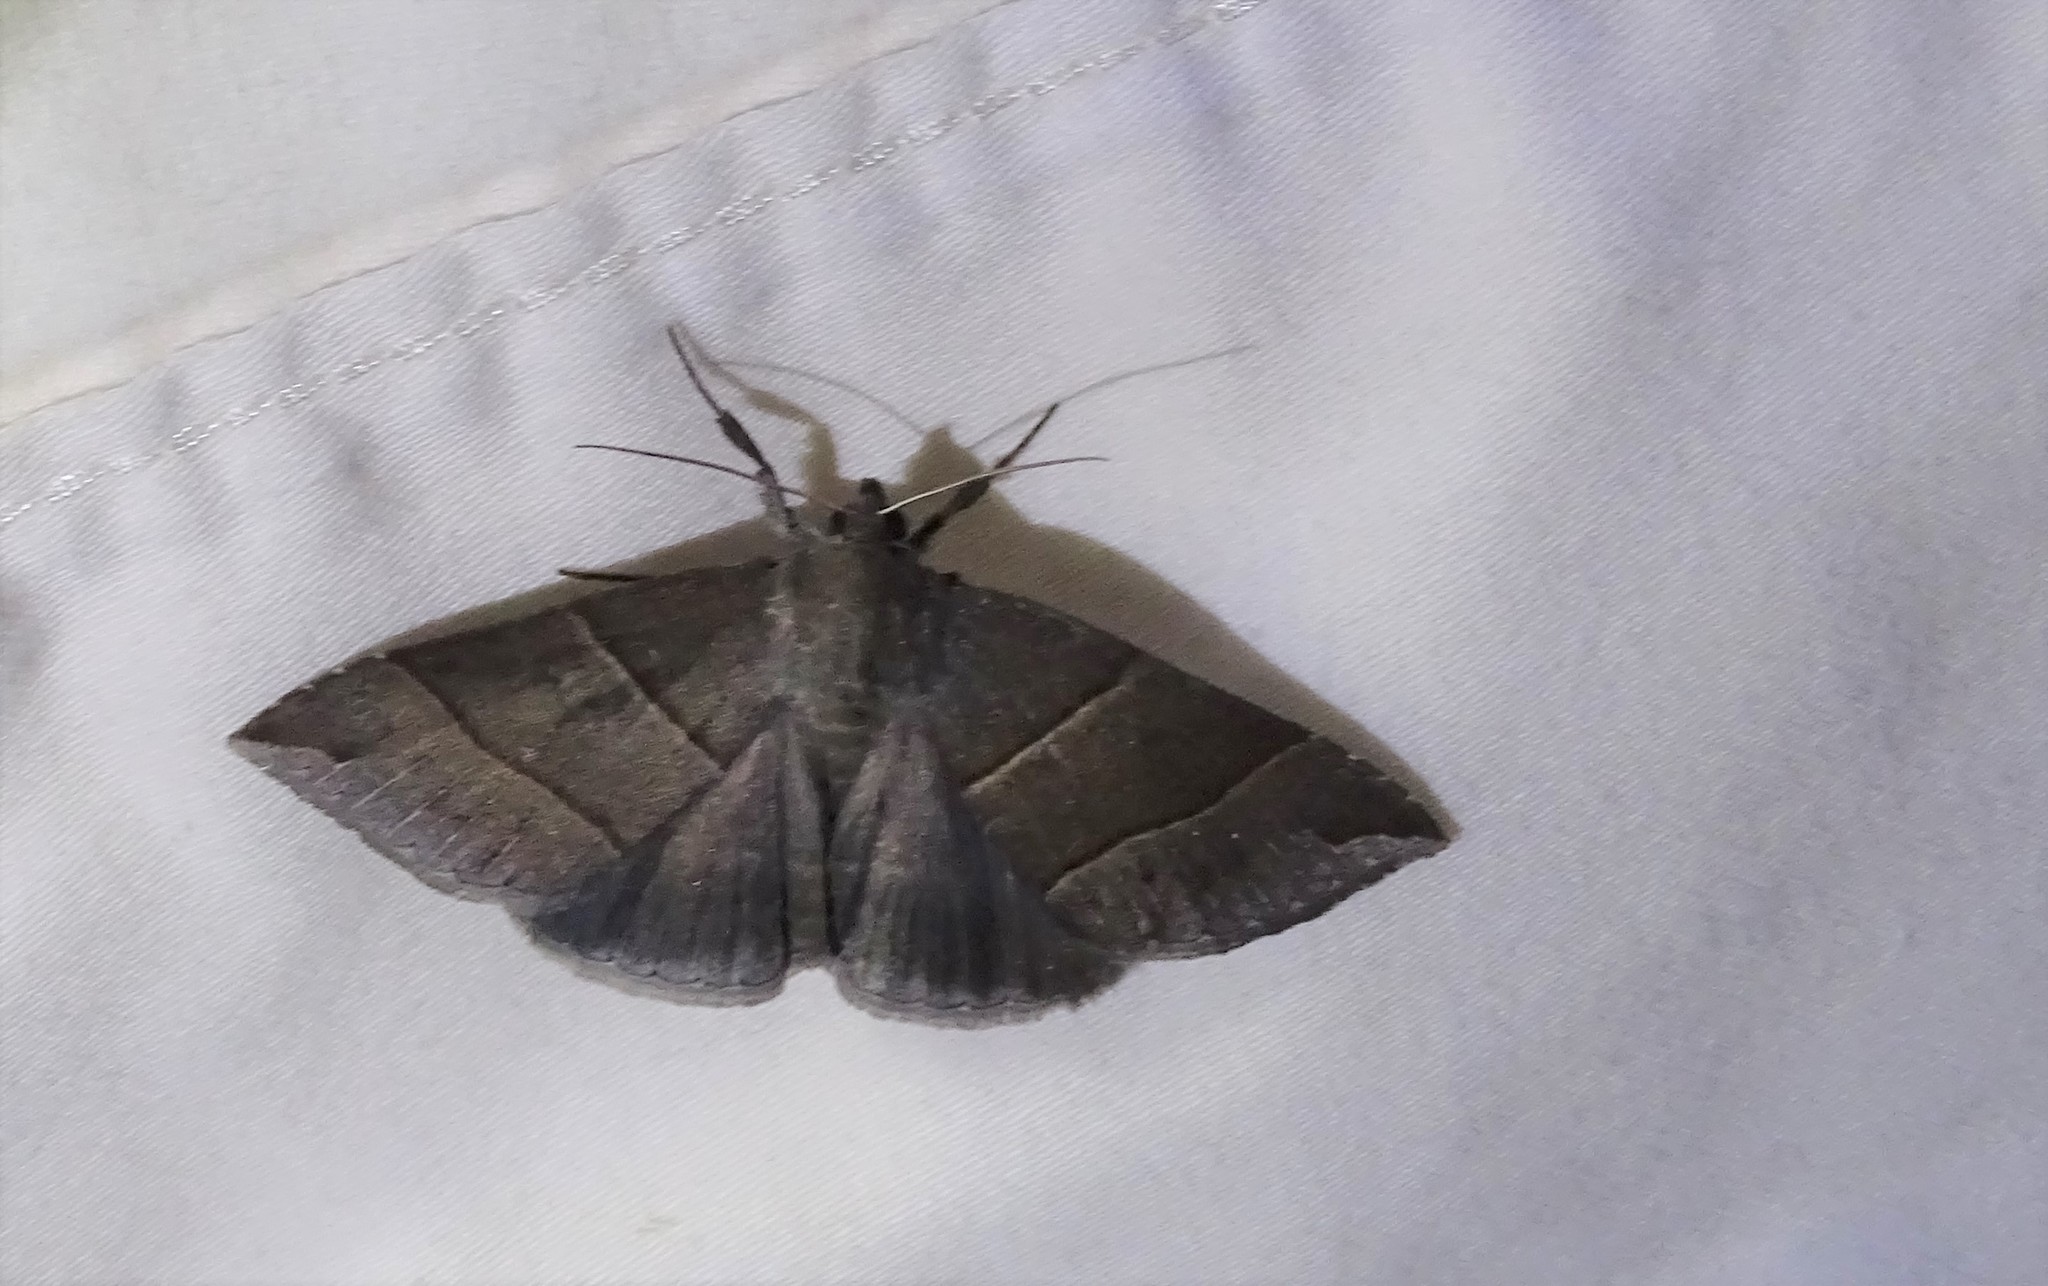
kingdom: Animalia
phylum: Arthropoda
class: Insecta
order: Lepidoptera
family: Erebidae
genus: Parallelia
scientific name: Parallelia bistriaris
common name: Maple looper moth
